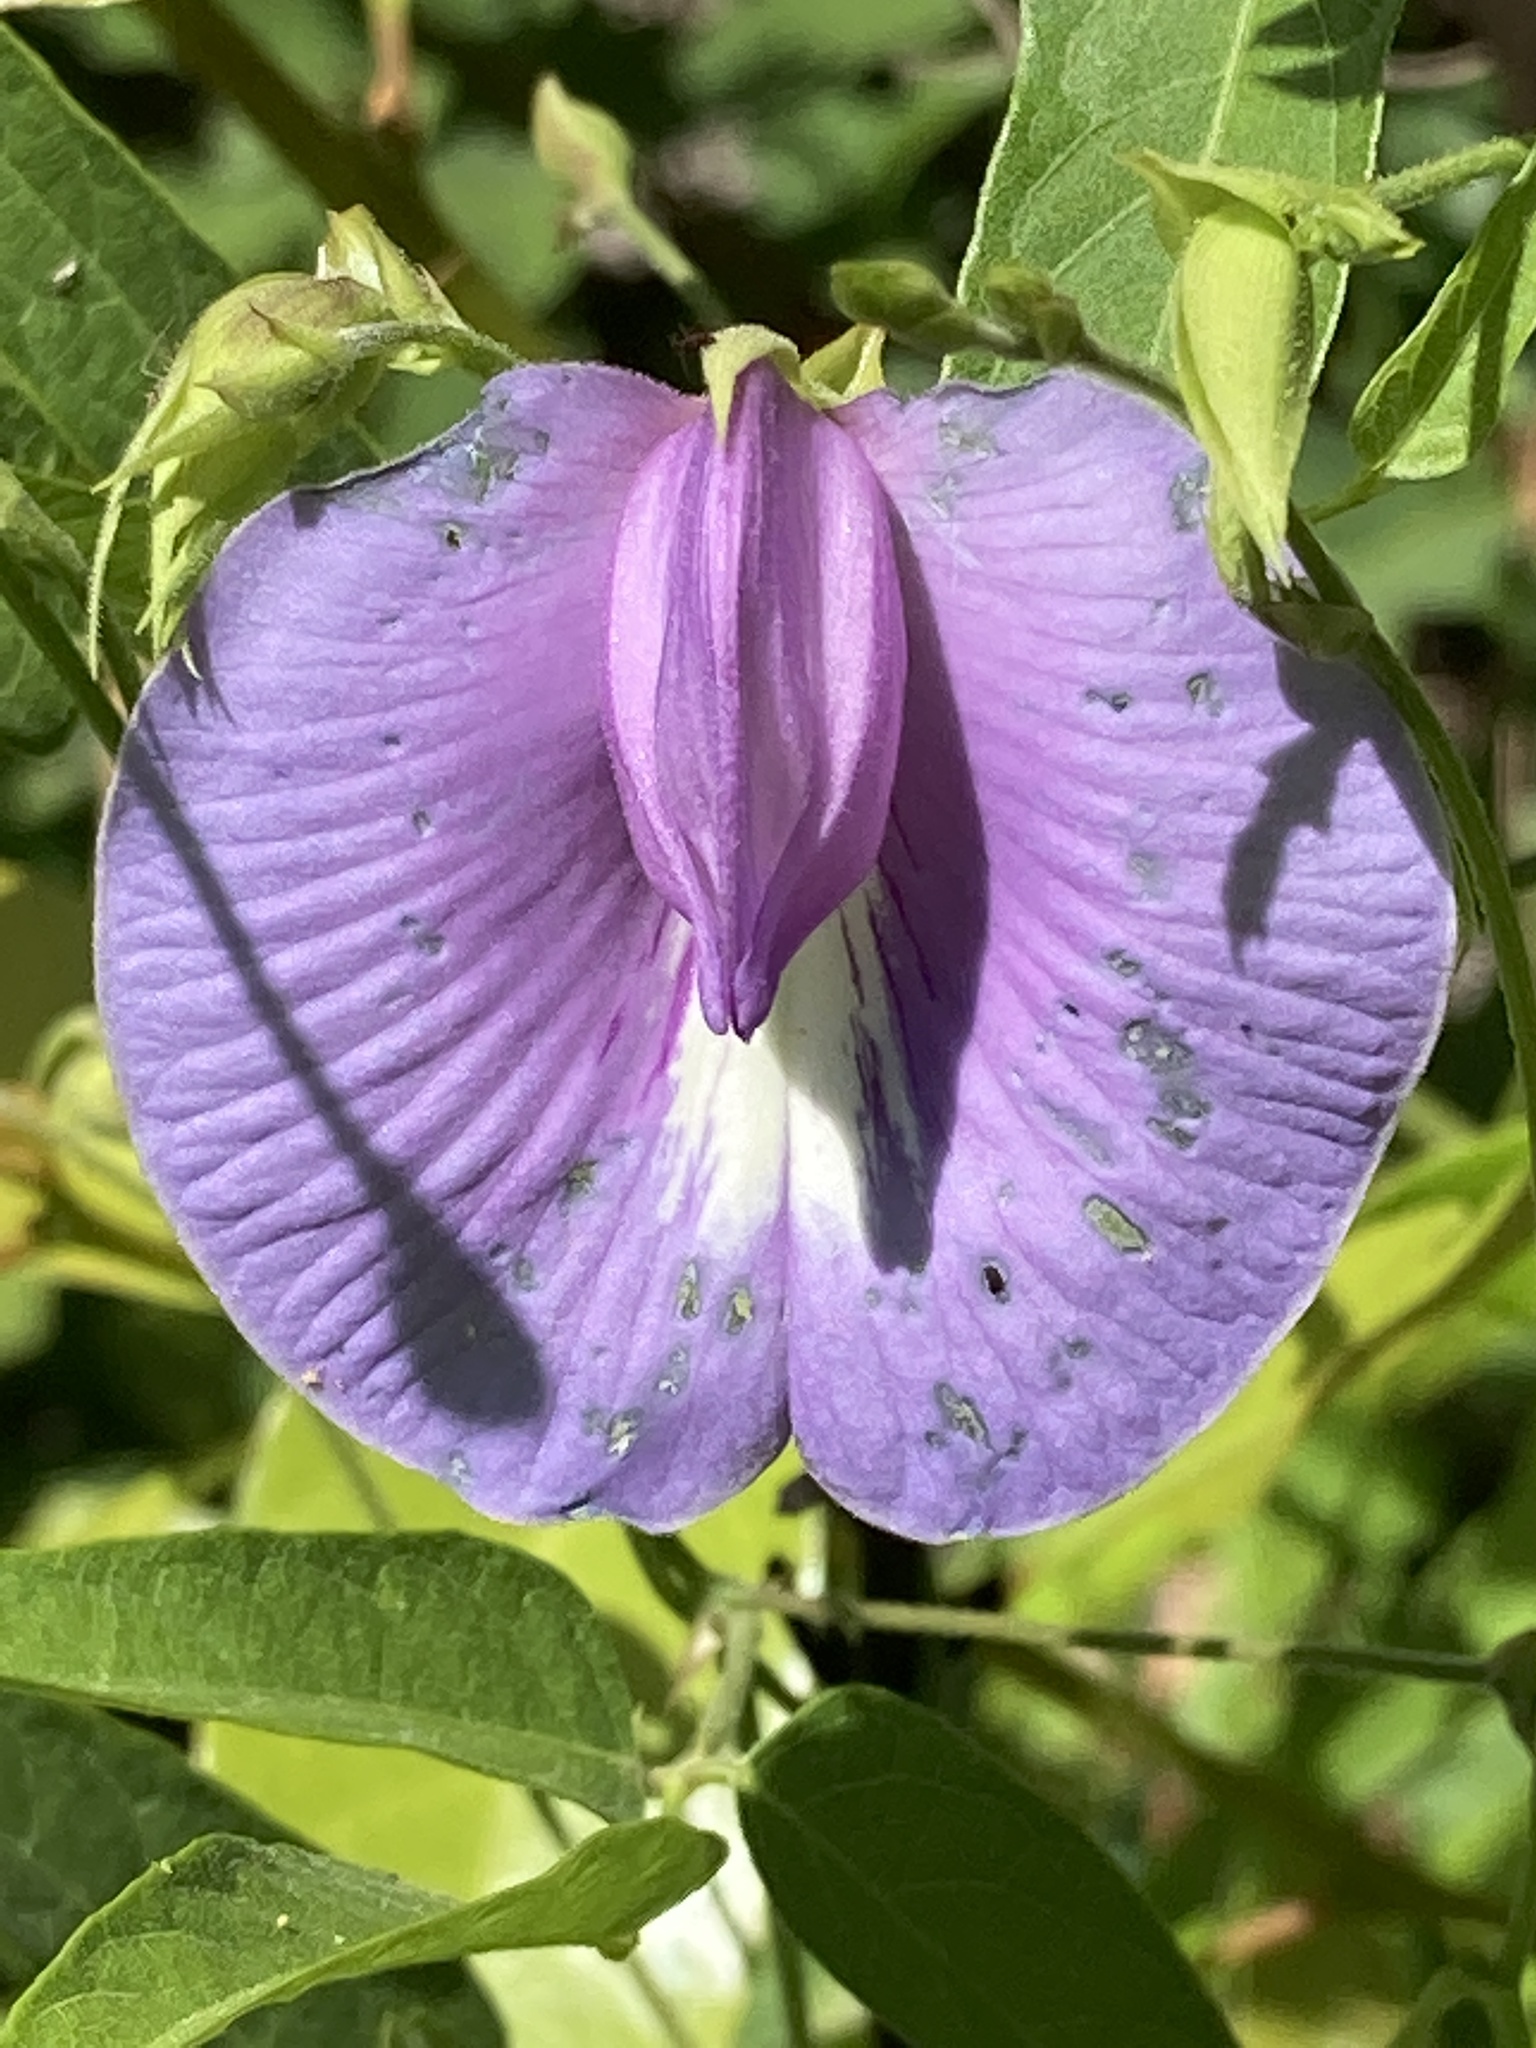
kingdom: Plantae
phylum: Tracheophyta
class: Magnoliopsida
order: Fabales
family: Fabaceae
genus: Centrosema
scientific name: Centrosema virginianum
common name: Butterfly-pea
